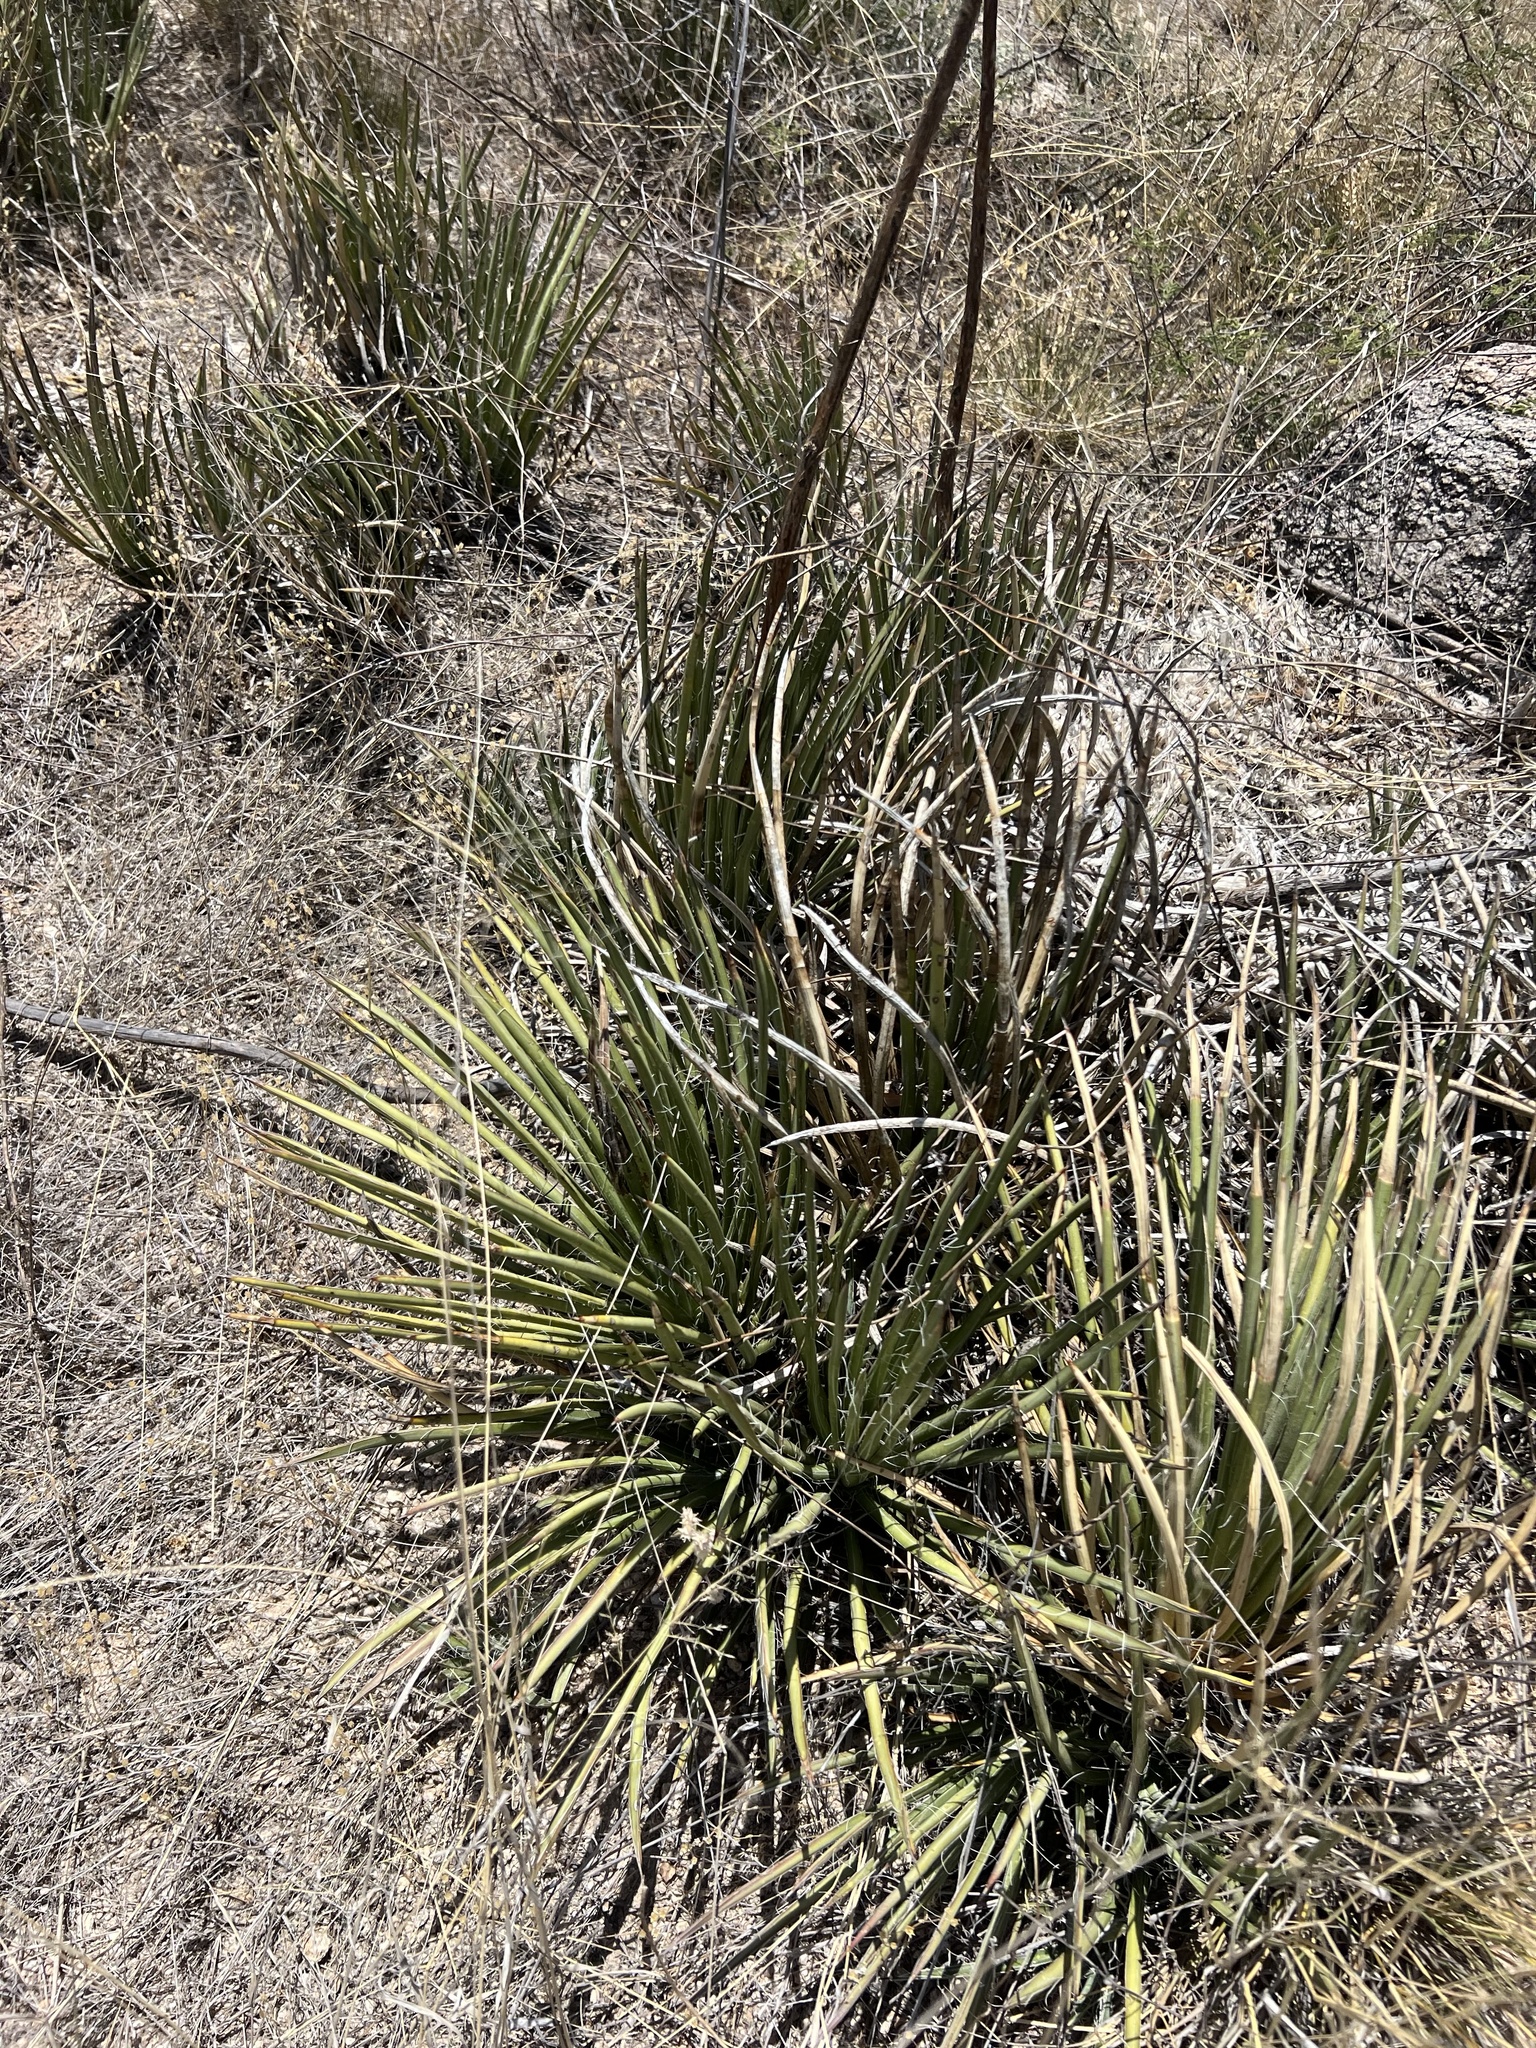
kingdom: Plantae
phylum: Tracheophyta
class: Liliopsida
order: Asparagales
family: Asparagaceae
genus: Agave
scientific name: Agave schottii
